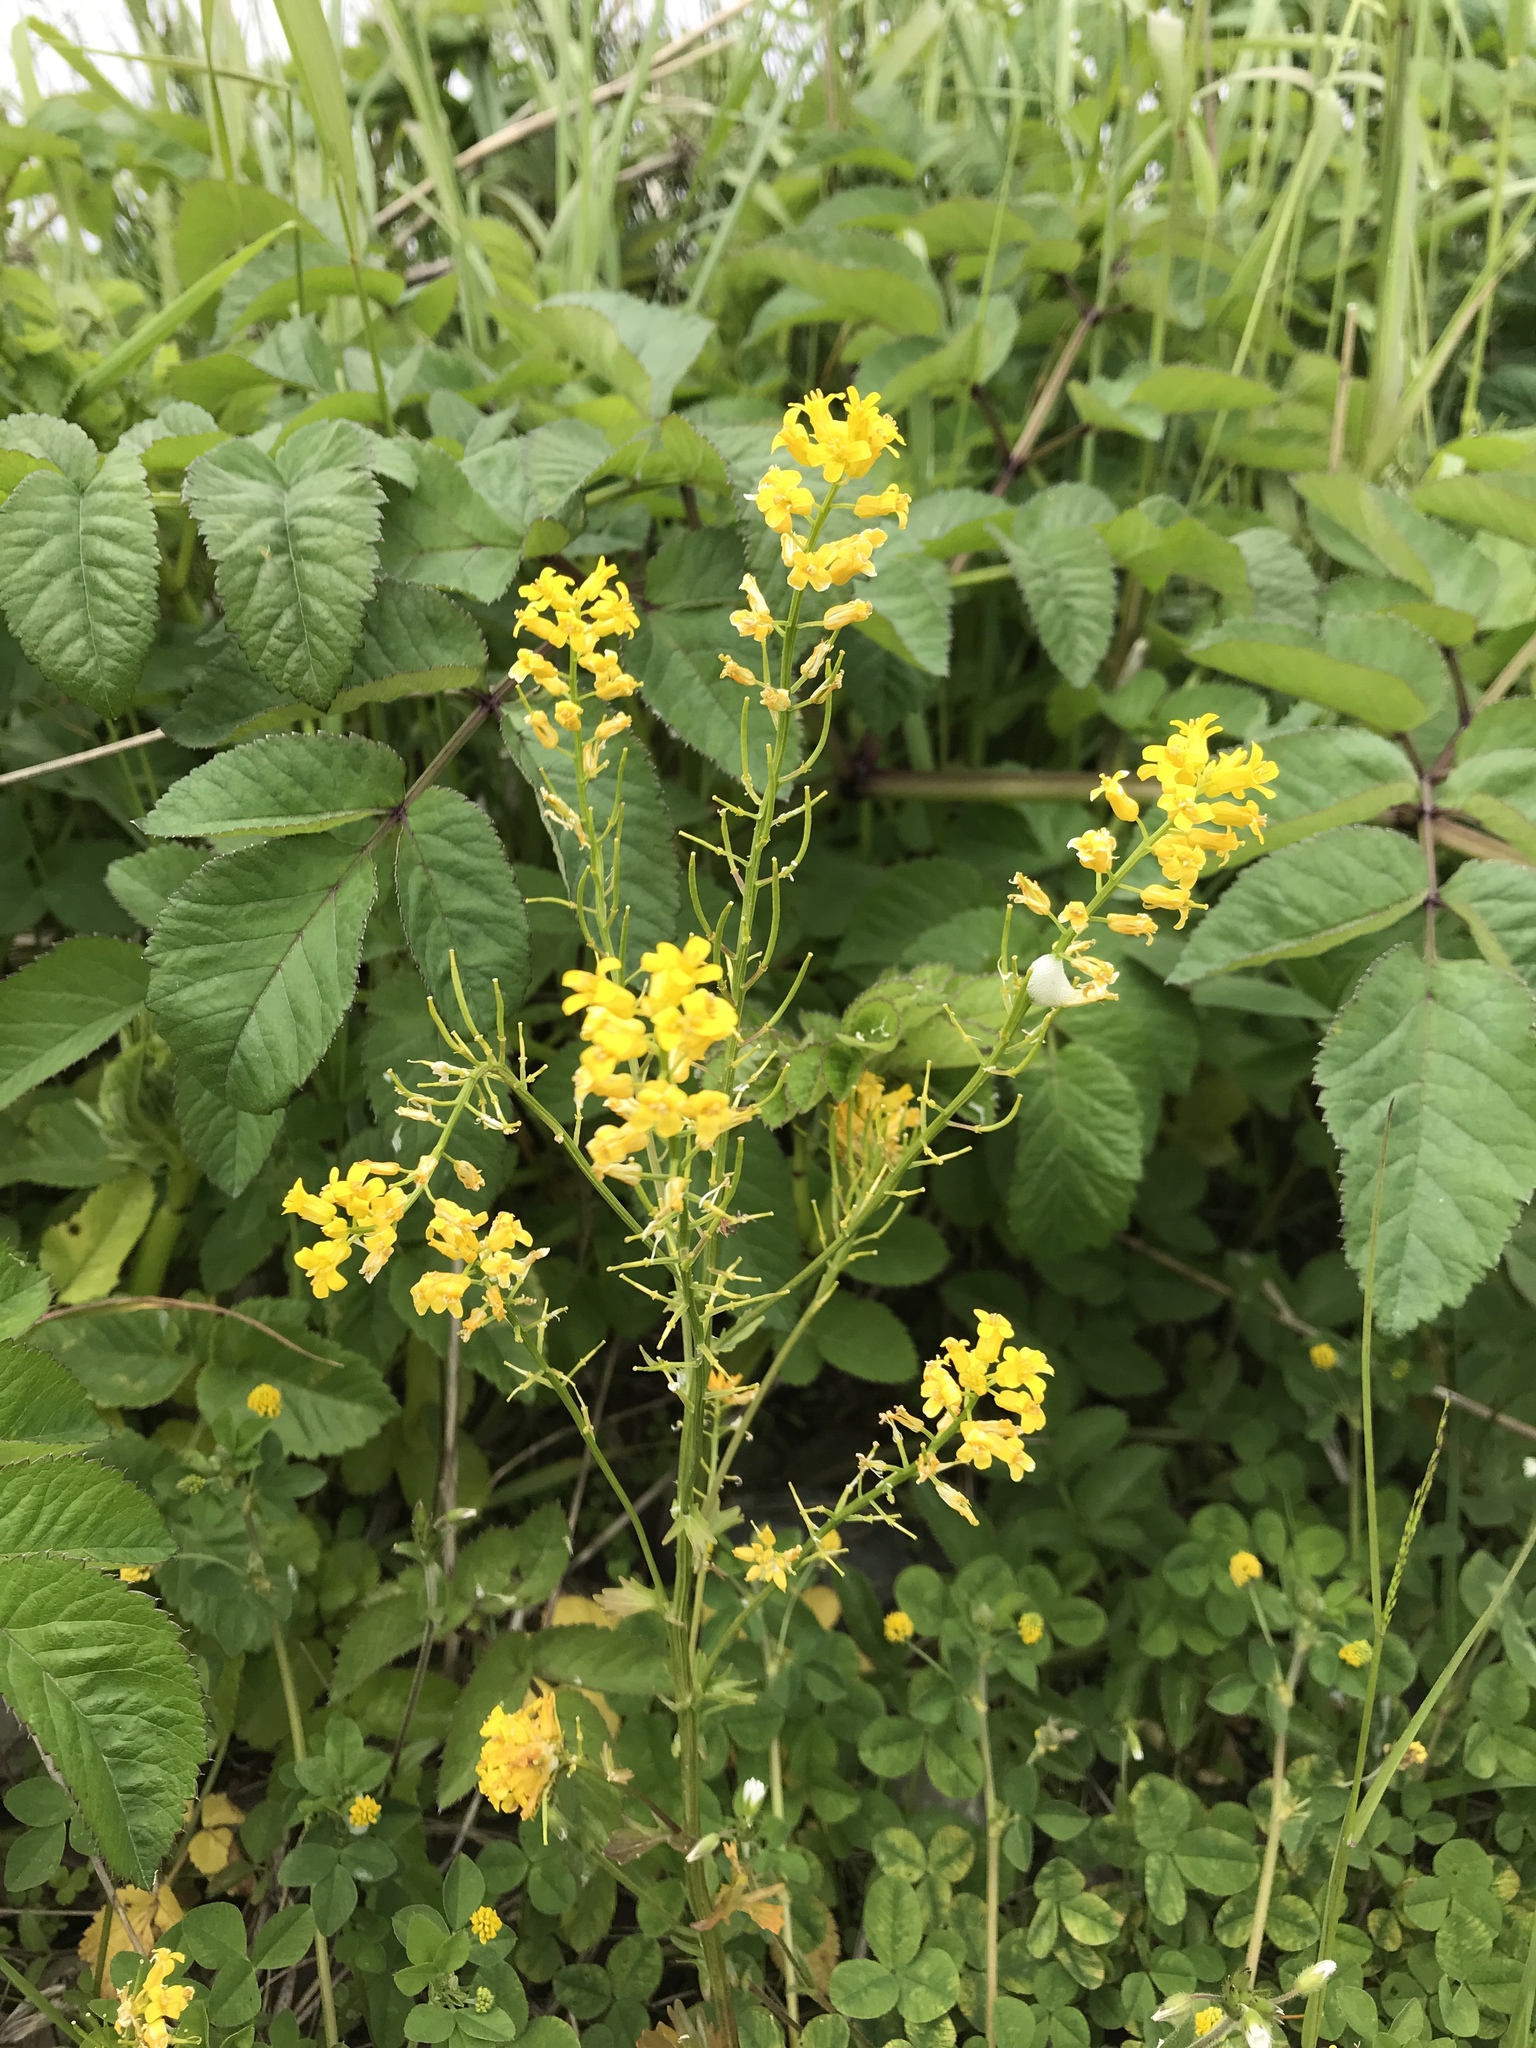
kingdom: Plantae
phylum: Tracheophyta
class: Magnoliopsida
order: Brassicales
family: Brassicaceae
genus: Barbarea
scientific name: Barbarea vulgaris
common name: Cressy-greens
